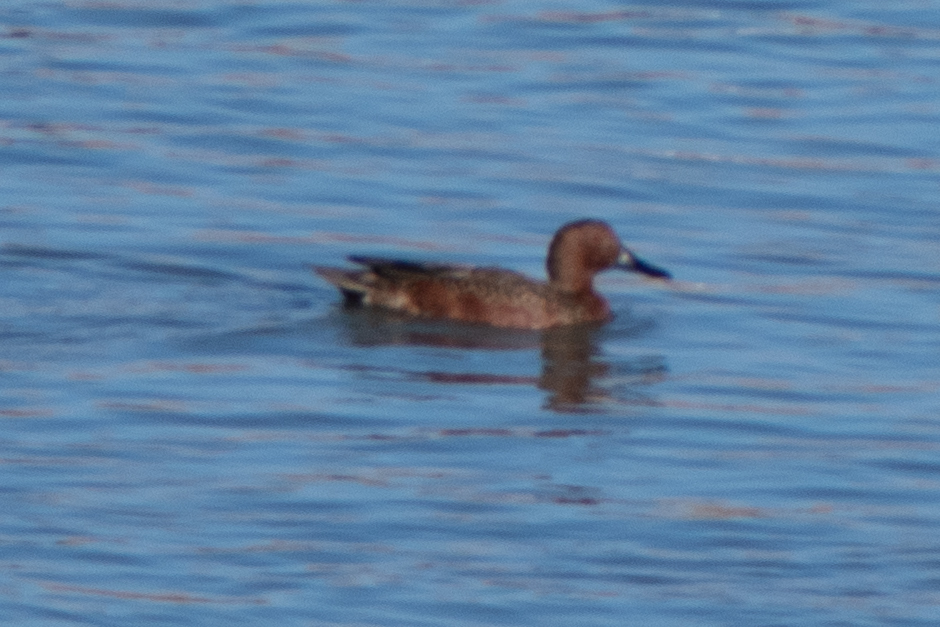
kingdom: Animalia
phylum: Chordata
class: Aves
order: Anseriformes
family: Anatidae
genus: Spatula
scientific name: Spatula cyanoptera
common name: Cinnamon teal
